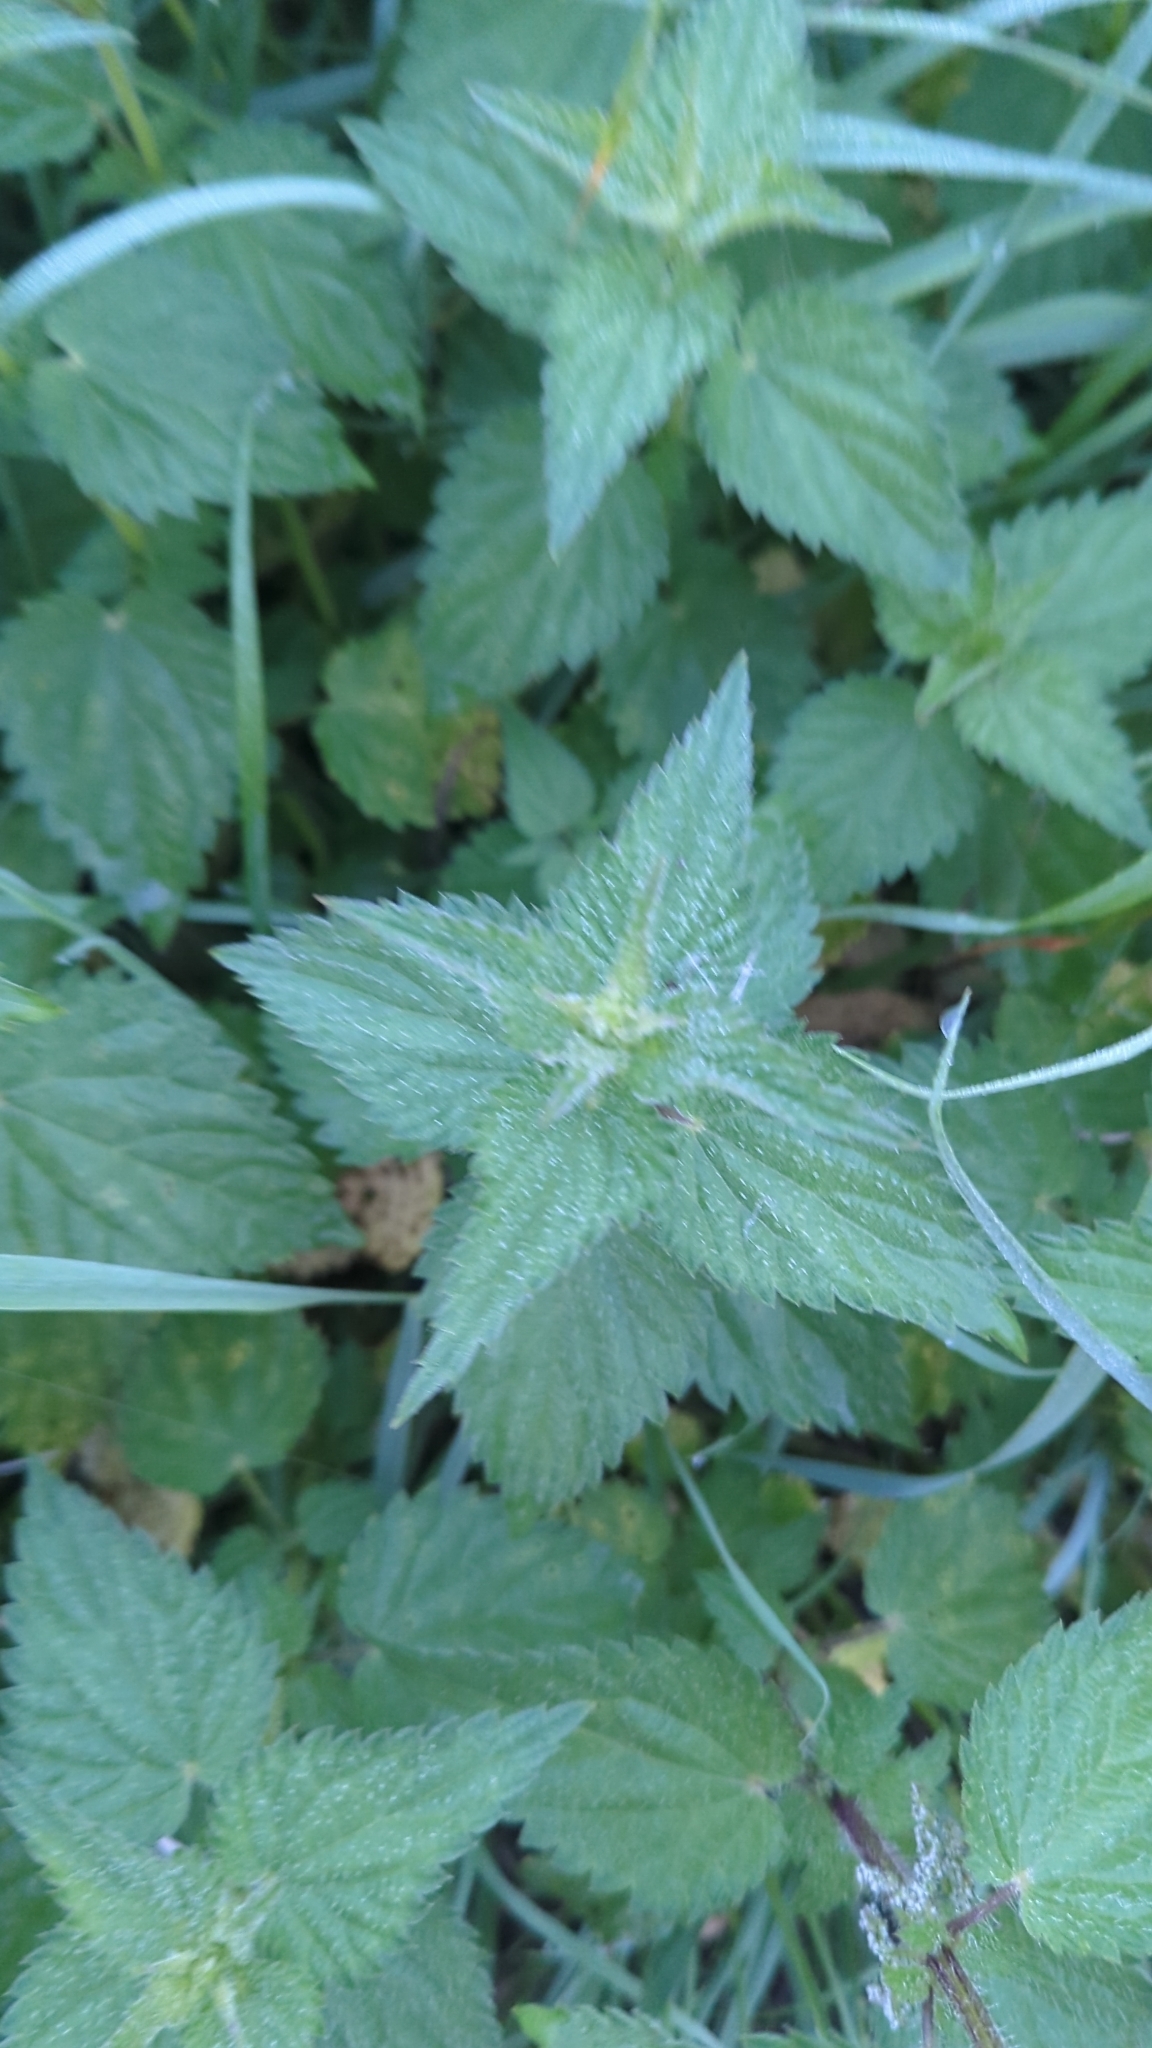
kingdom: Plantae
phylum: Tracheophyta
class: Magnoliopsida
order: Rosales
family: Urticaceae
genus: Urtica
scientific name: Urtica dioica
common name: Common nettle
